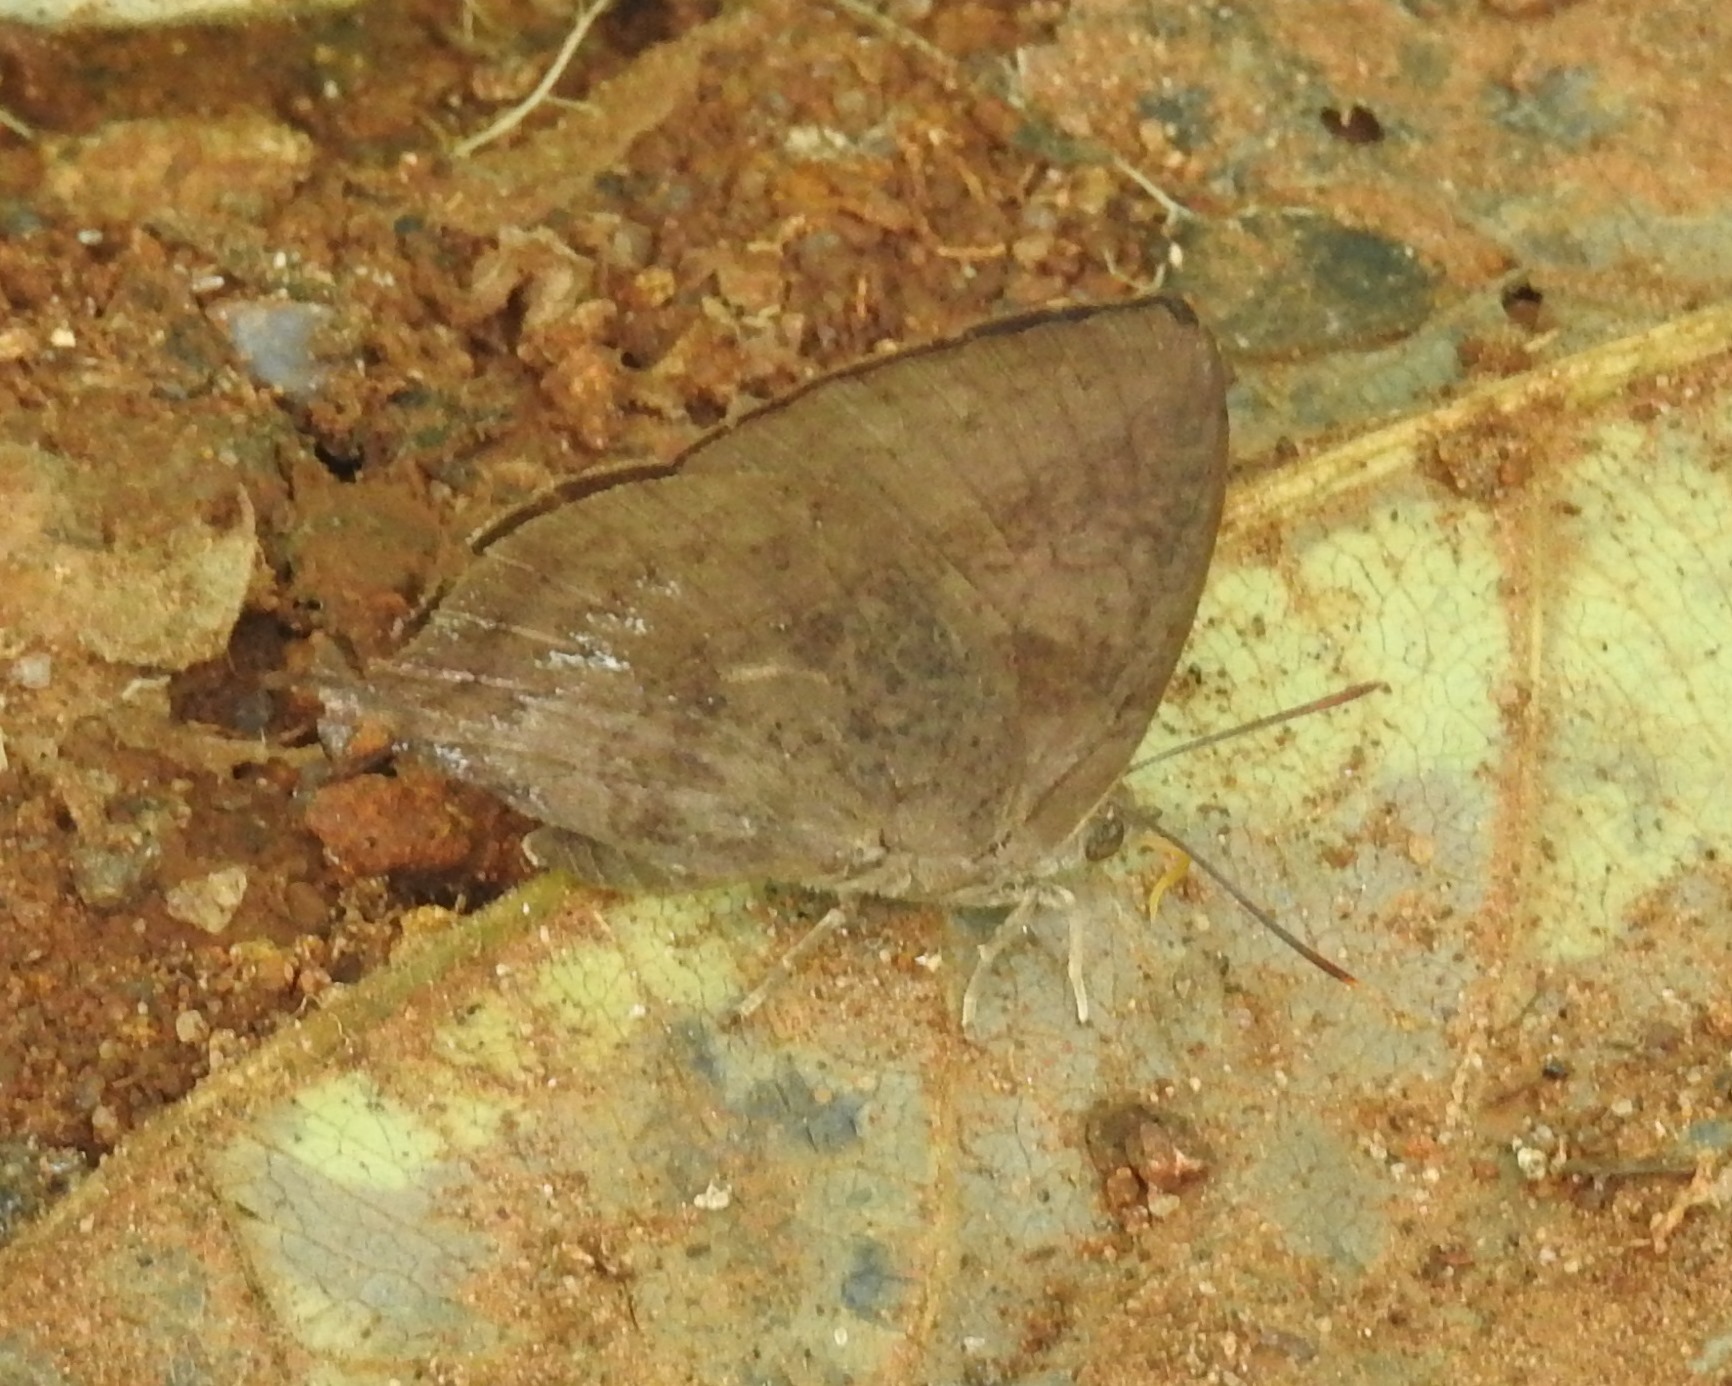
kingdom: Animalia
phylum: Arthropoda
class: Insecta
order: Lepidoptera
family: Lycaenidae
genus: Amblypodia
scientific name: Amblypodia anita
